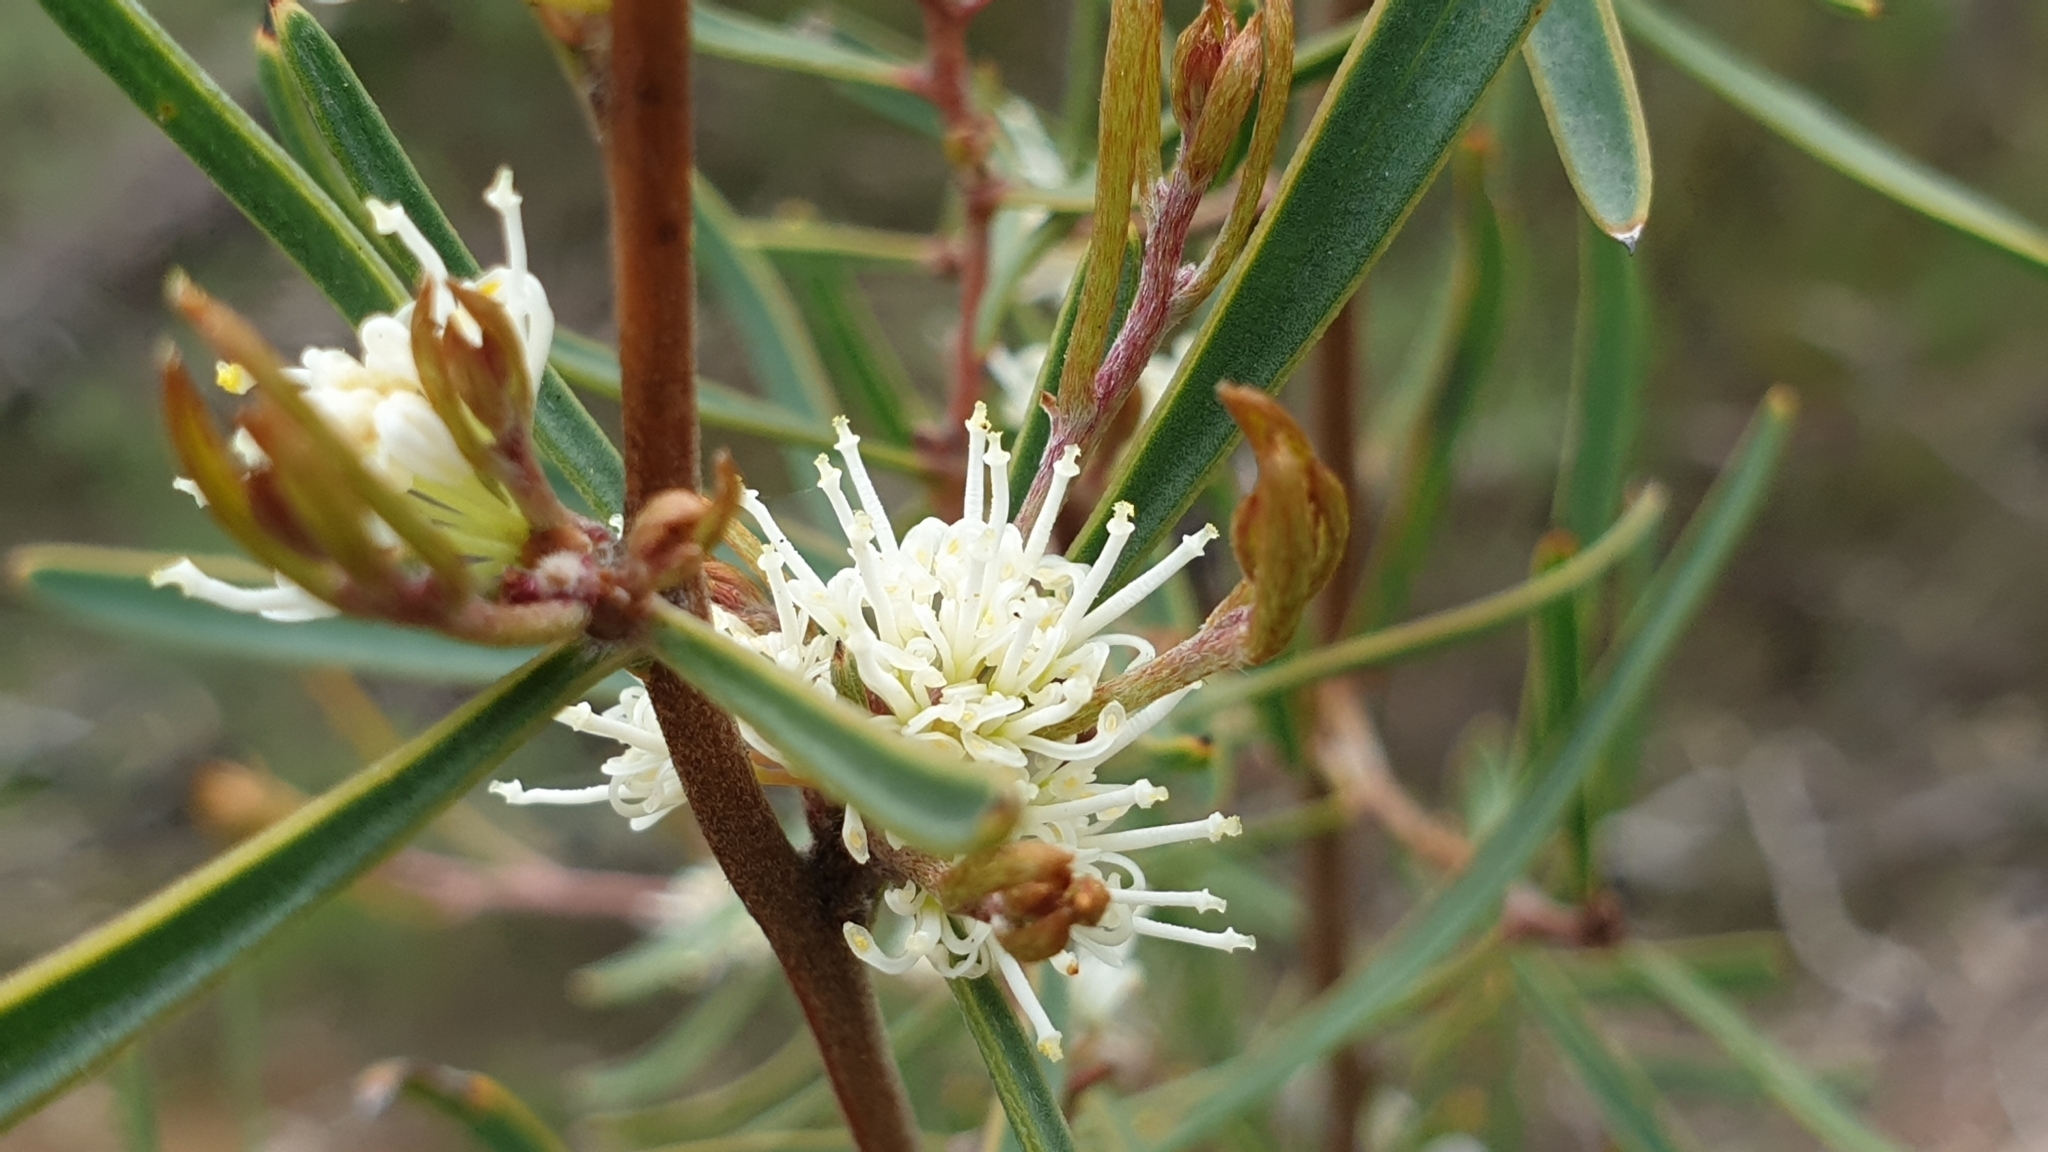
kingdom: Plantae
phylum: Tracheophyta
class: Magnoliopsida
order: Proteales
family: Proteaceae
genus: Hakea
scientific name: Hakea carinata
